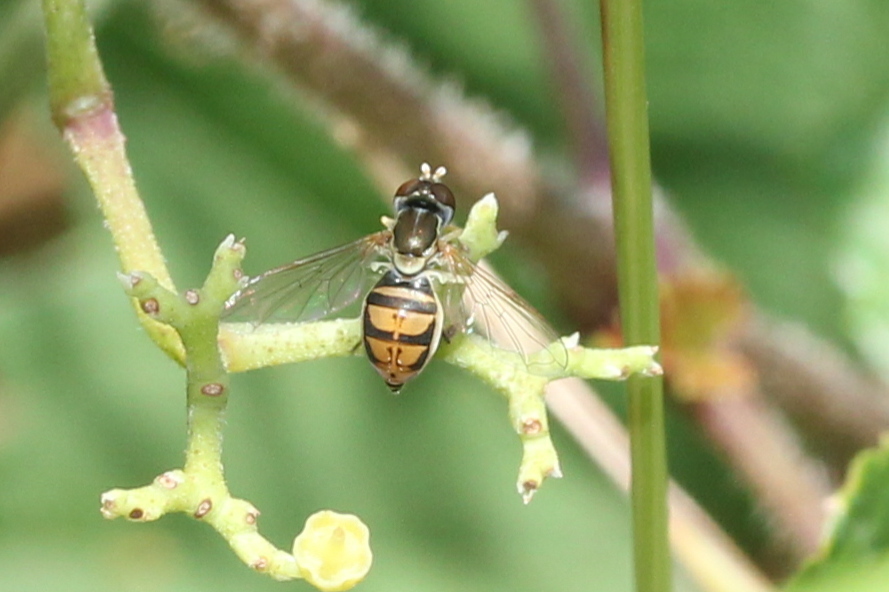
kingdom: Animalia
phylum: Arthropoda
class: Insecta
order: Diptera
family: Syrphidae
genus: Toxomerus
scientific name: Toxomerus marginatus
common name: Syrphid fly
